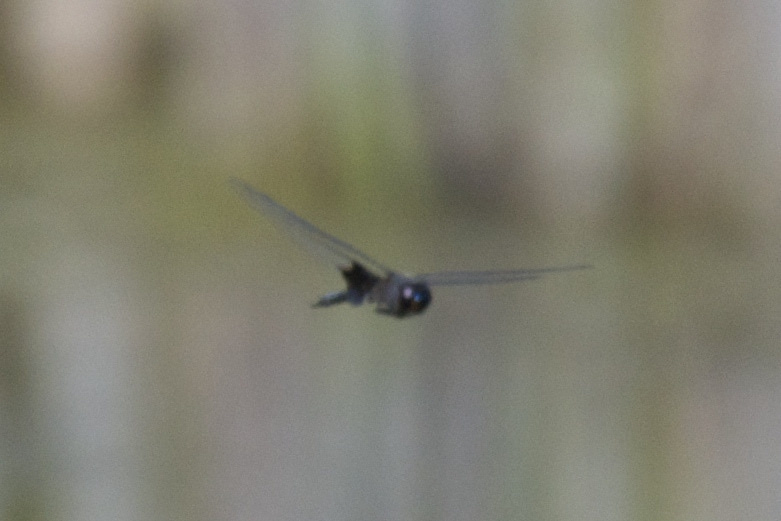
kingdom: Animalia
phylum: Arthropoda
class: Insecta
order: Odonata
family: Libellulidae
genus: Tramea
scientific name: Tramea lacerata
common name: Black saddlebags
